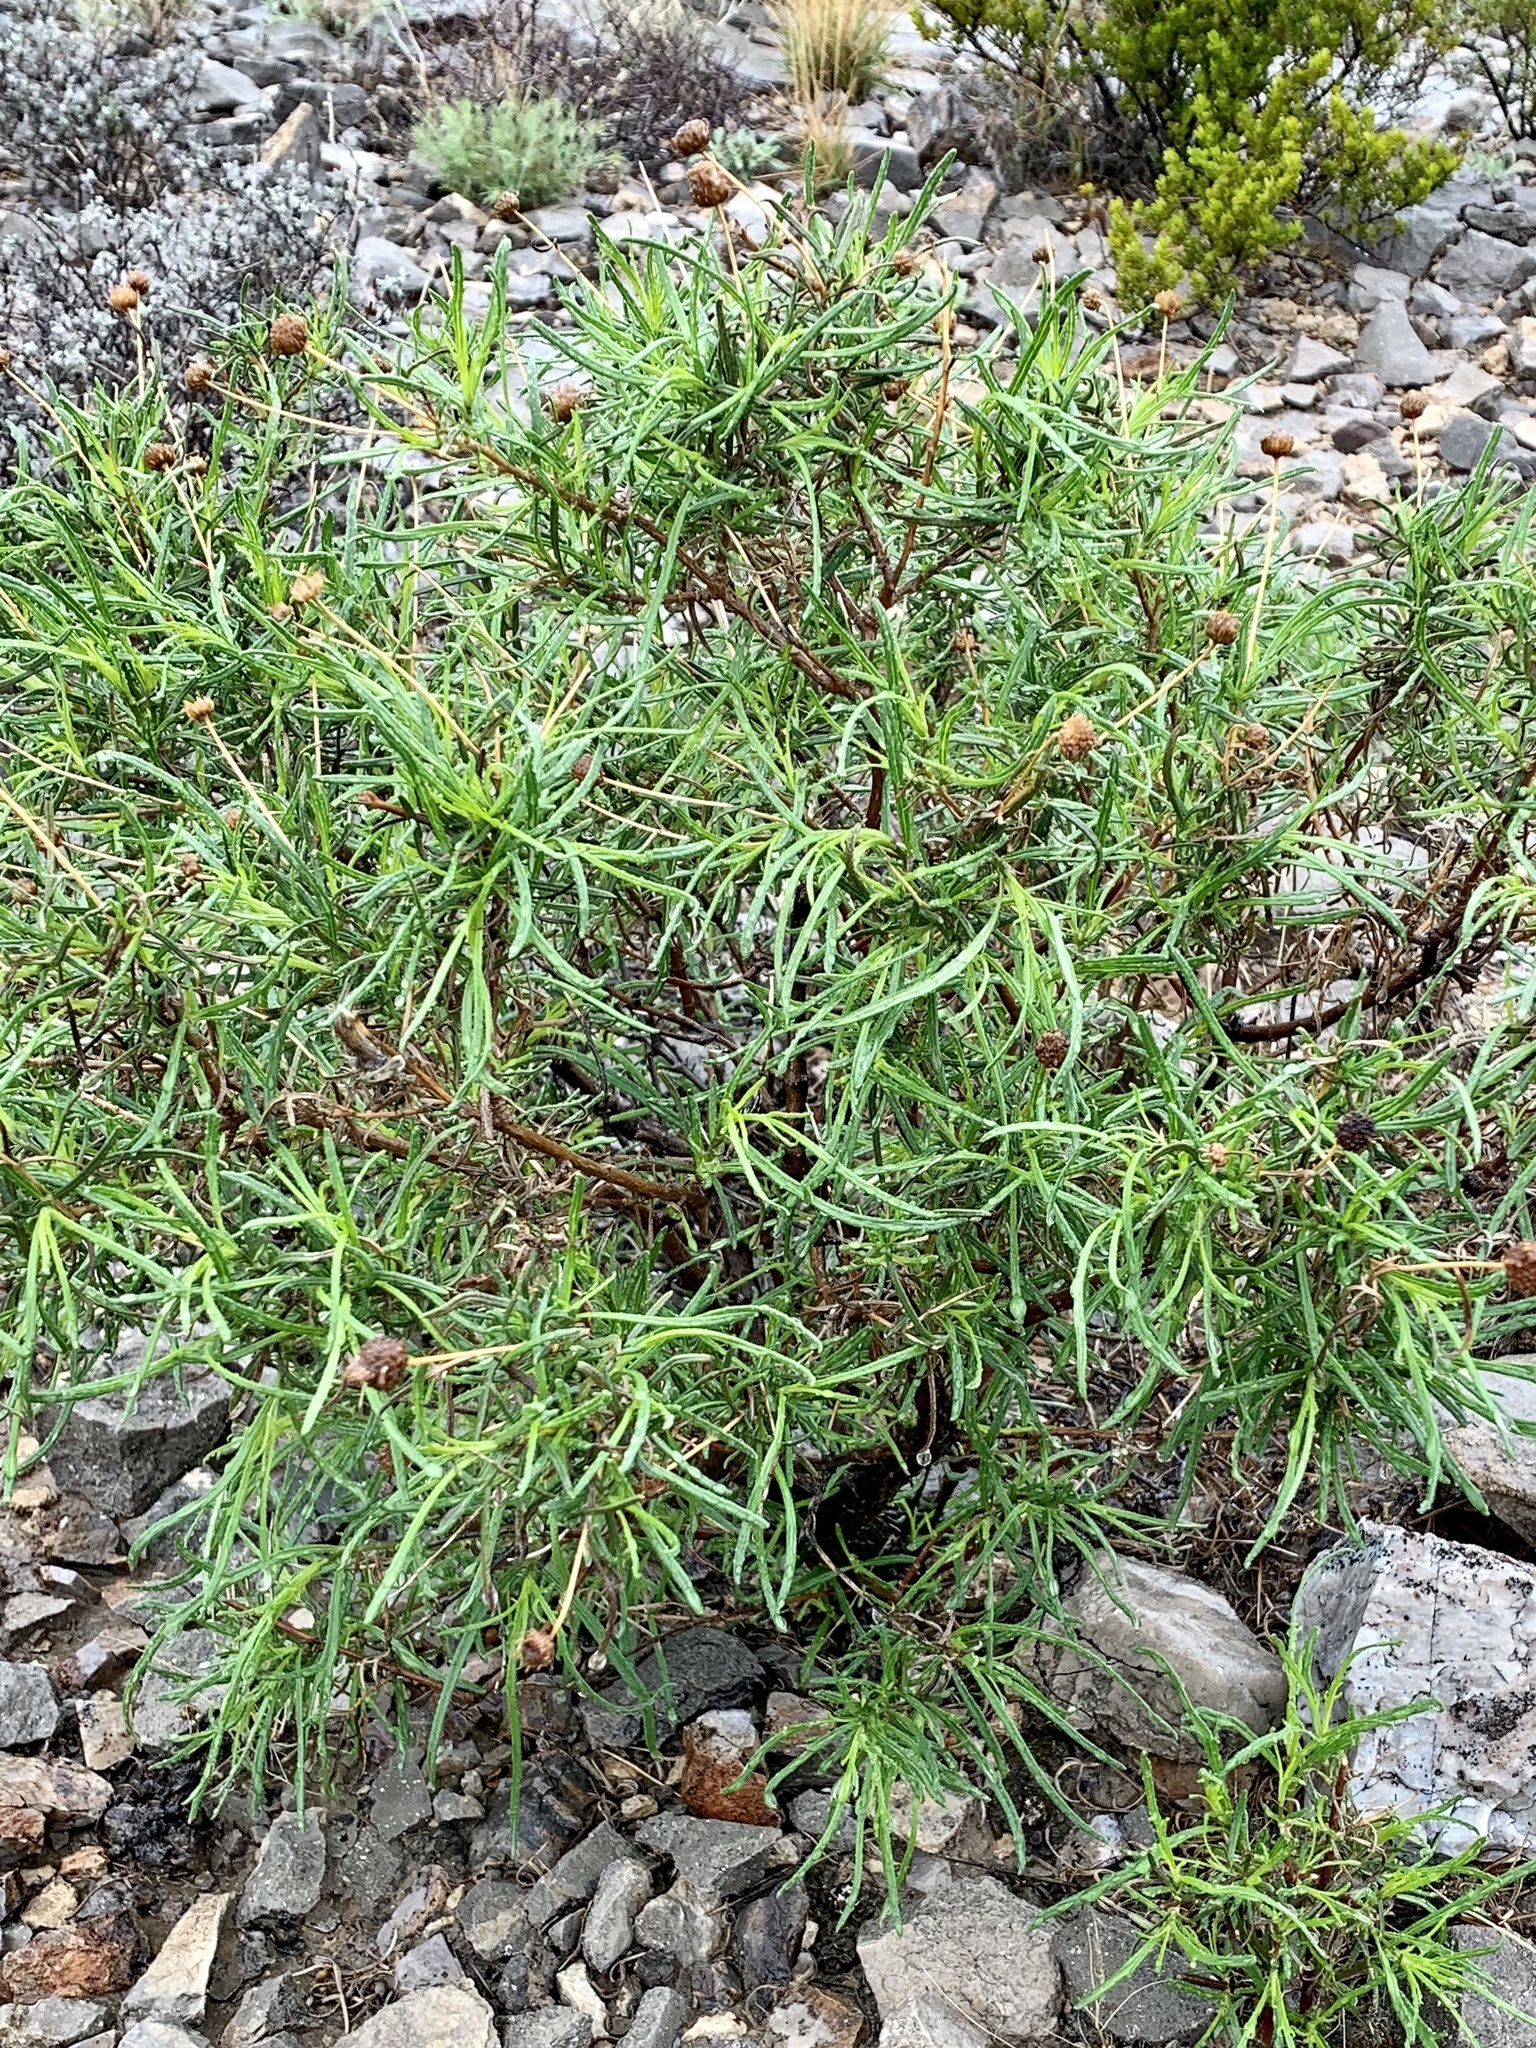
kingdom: Plantae
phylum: Tracheophyta
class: Magnoliopsida
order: Asterales
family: Asteraceae
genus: Sidneya
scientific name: Sidneya tenuifolia
